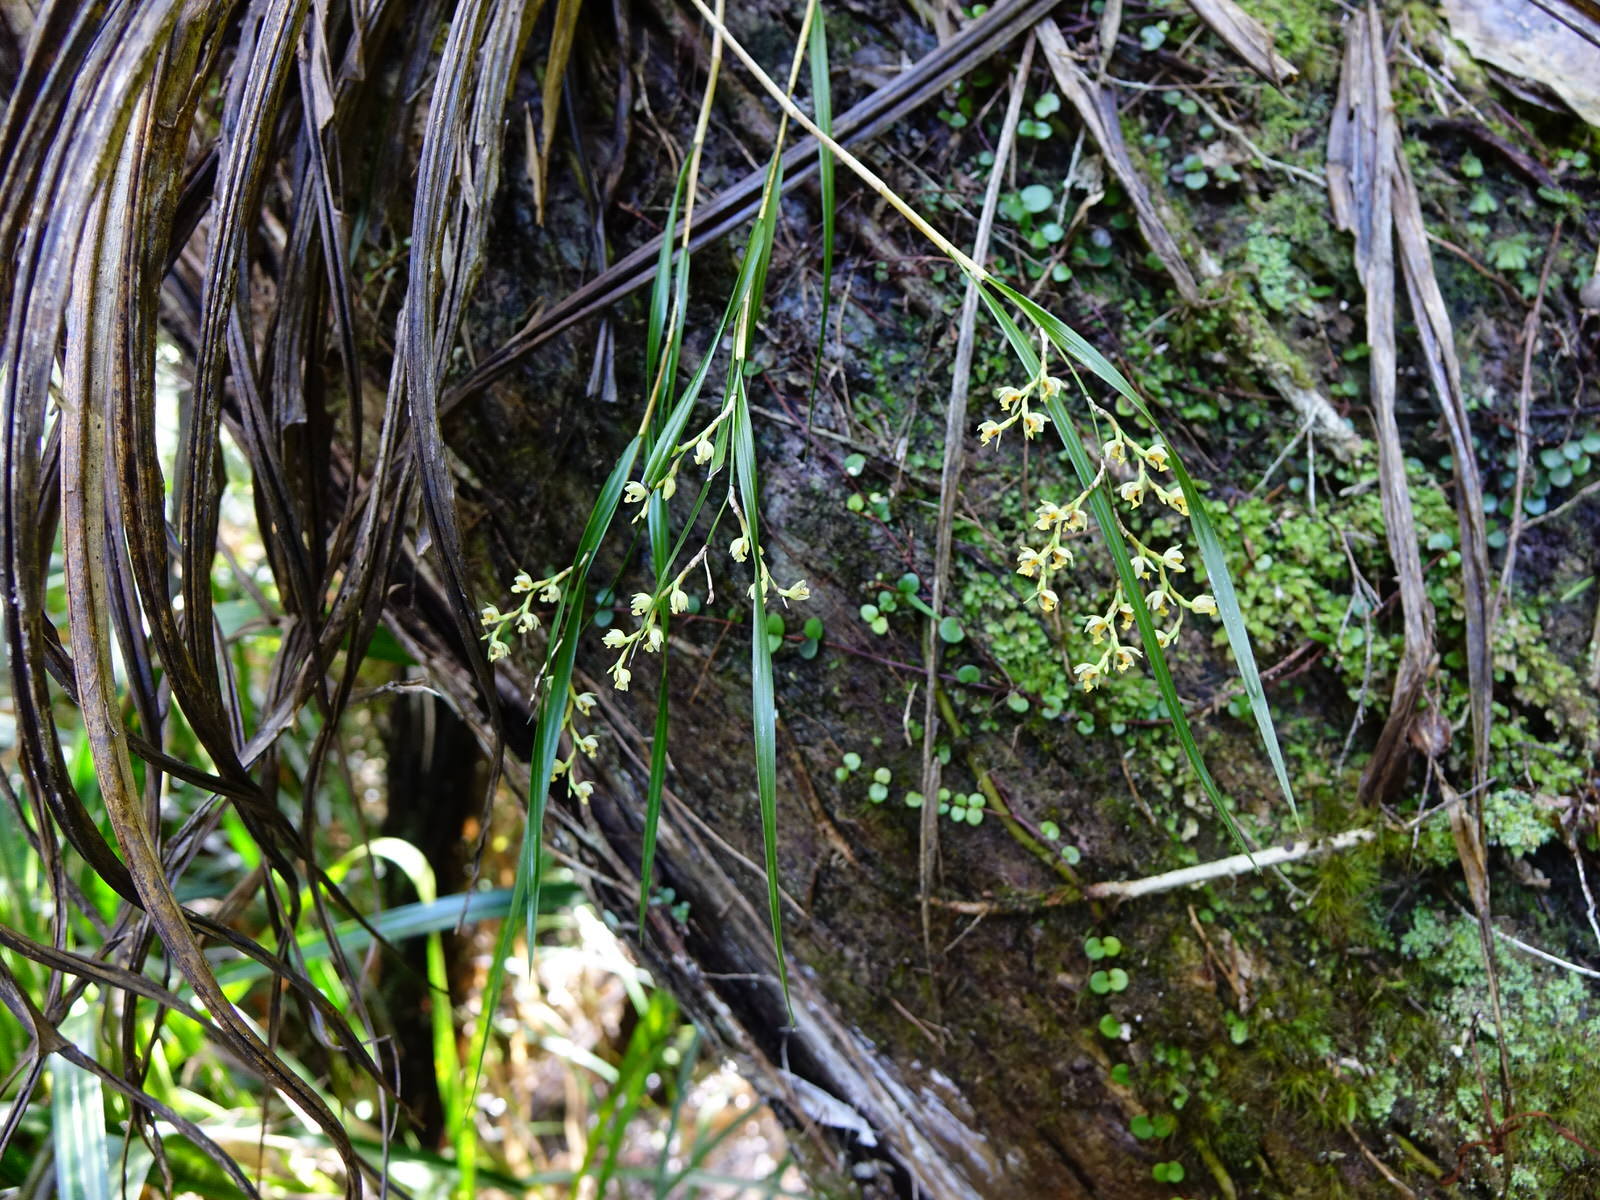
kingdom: Plantae
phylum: Tracheophyta
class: Liliopsida
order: Asparagales
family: Orchidaceae
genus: Earina
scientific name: Earina mucronata
